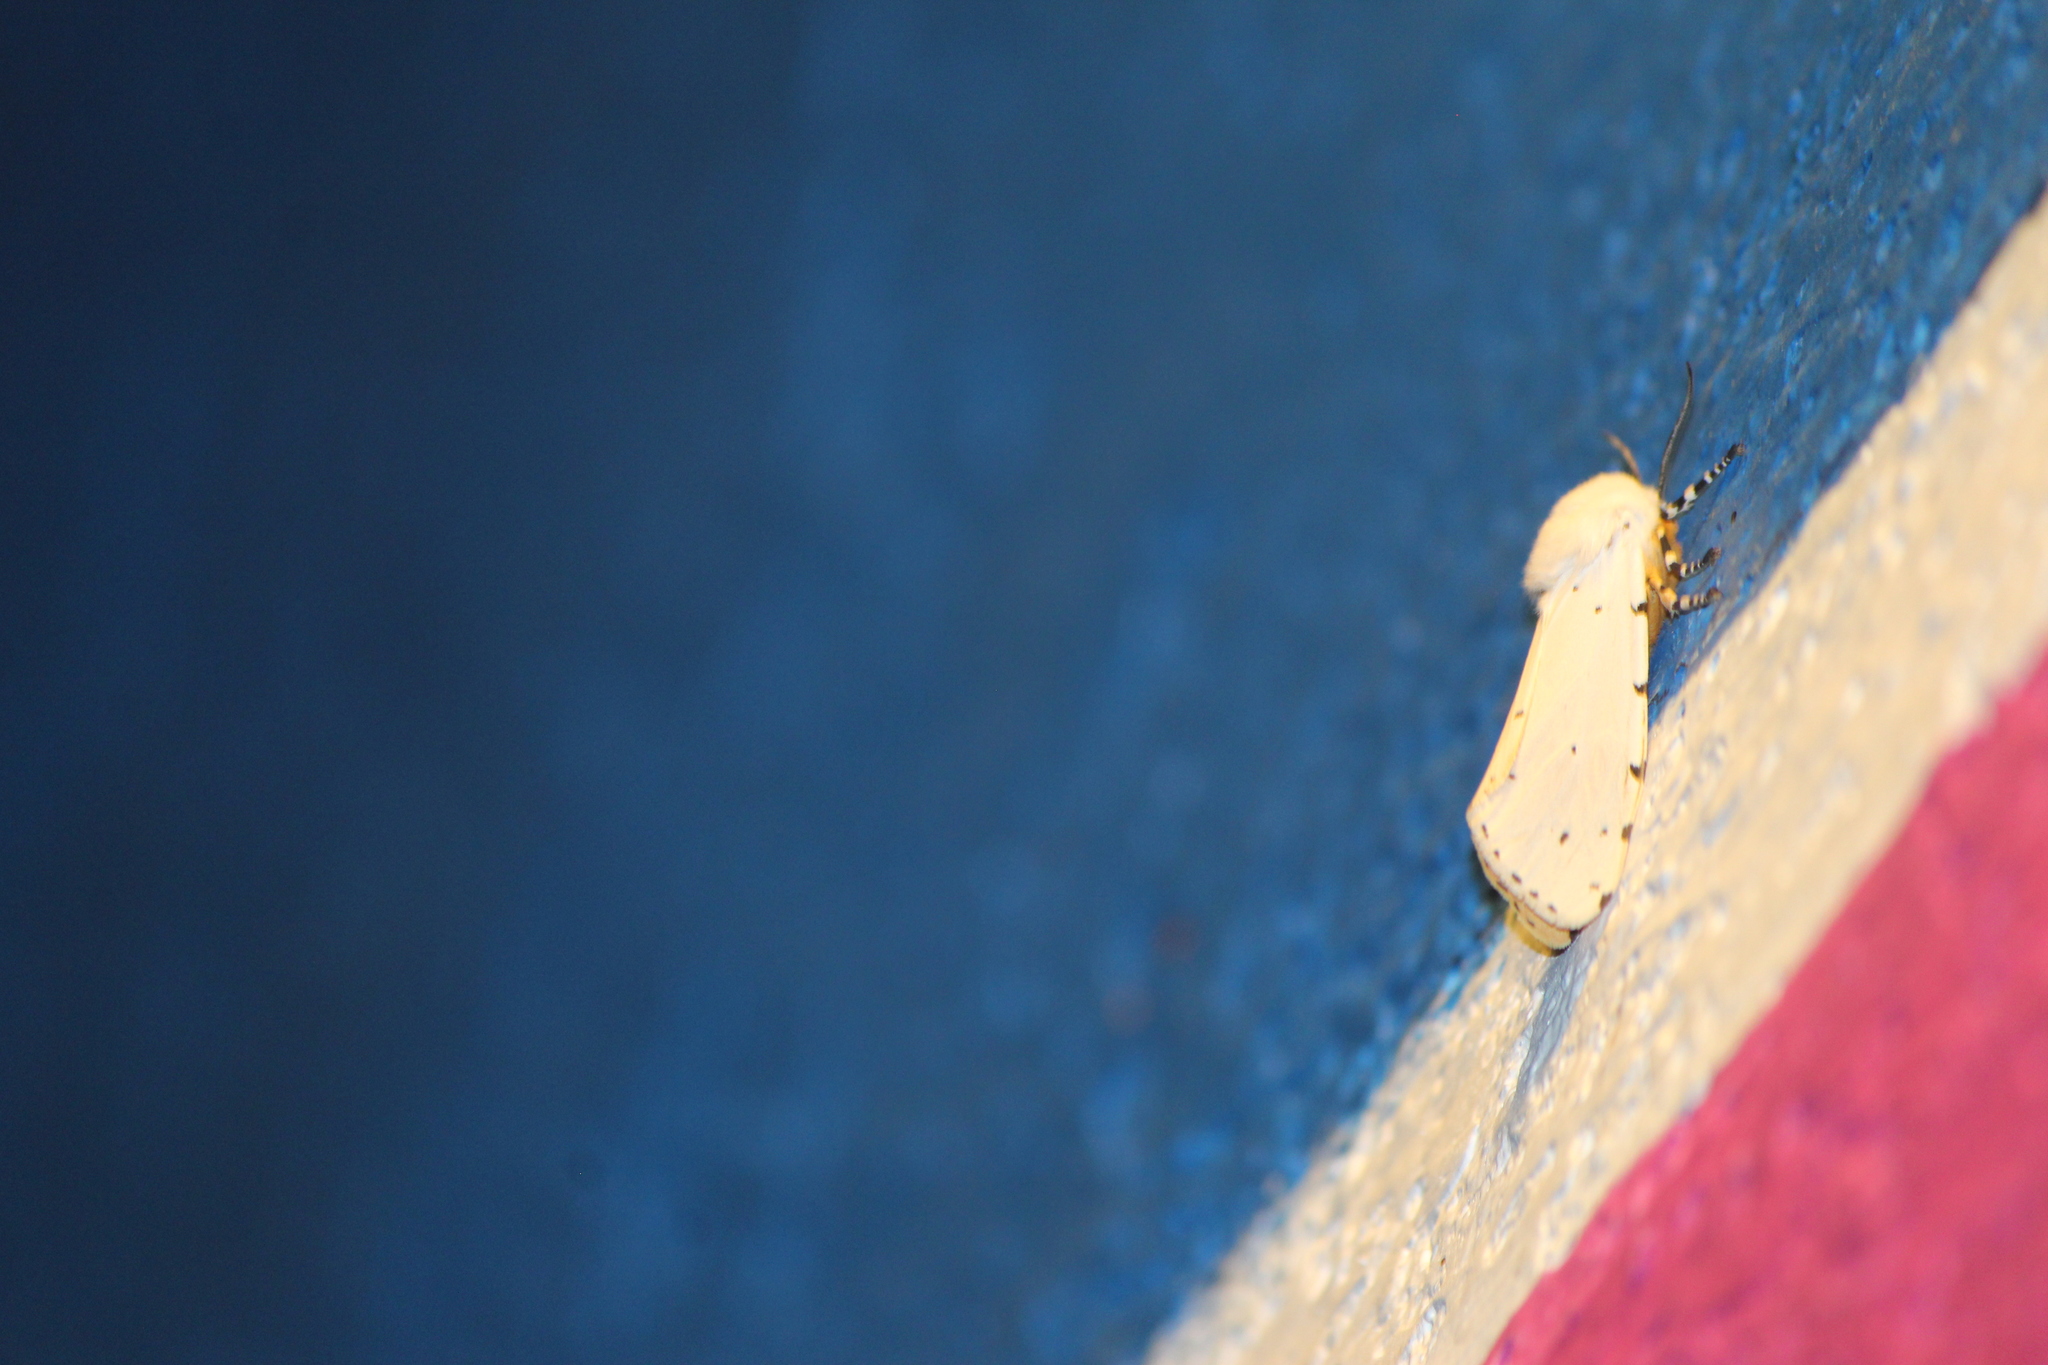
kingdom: Animalia
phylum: Arthropoda
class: Insecta
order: Lepidoptera
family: Erebidae
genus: Estigmene
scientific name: Estigmene acrea
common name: Salt marsh moth
